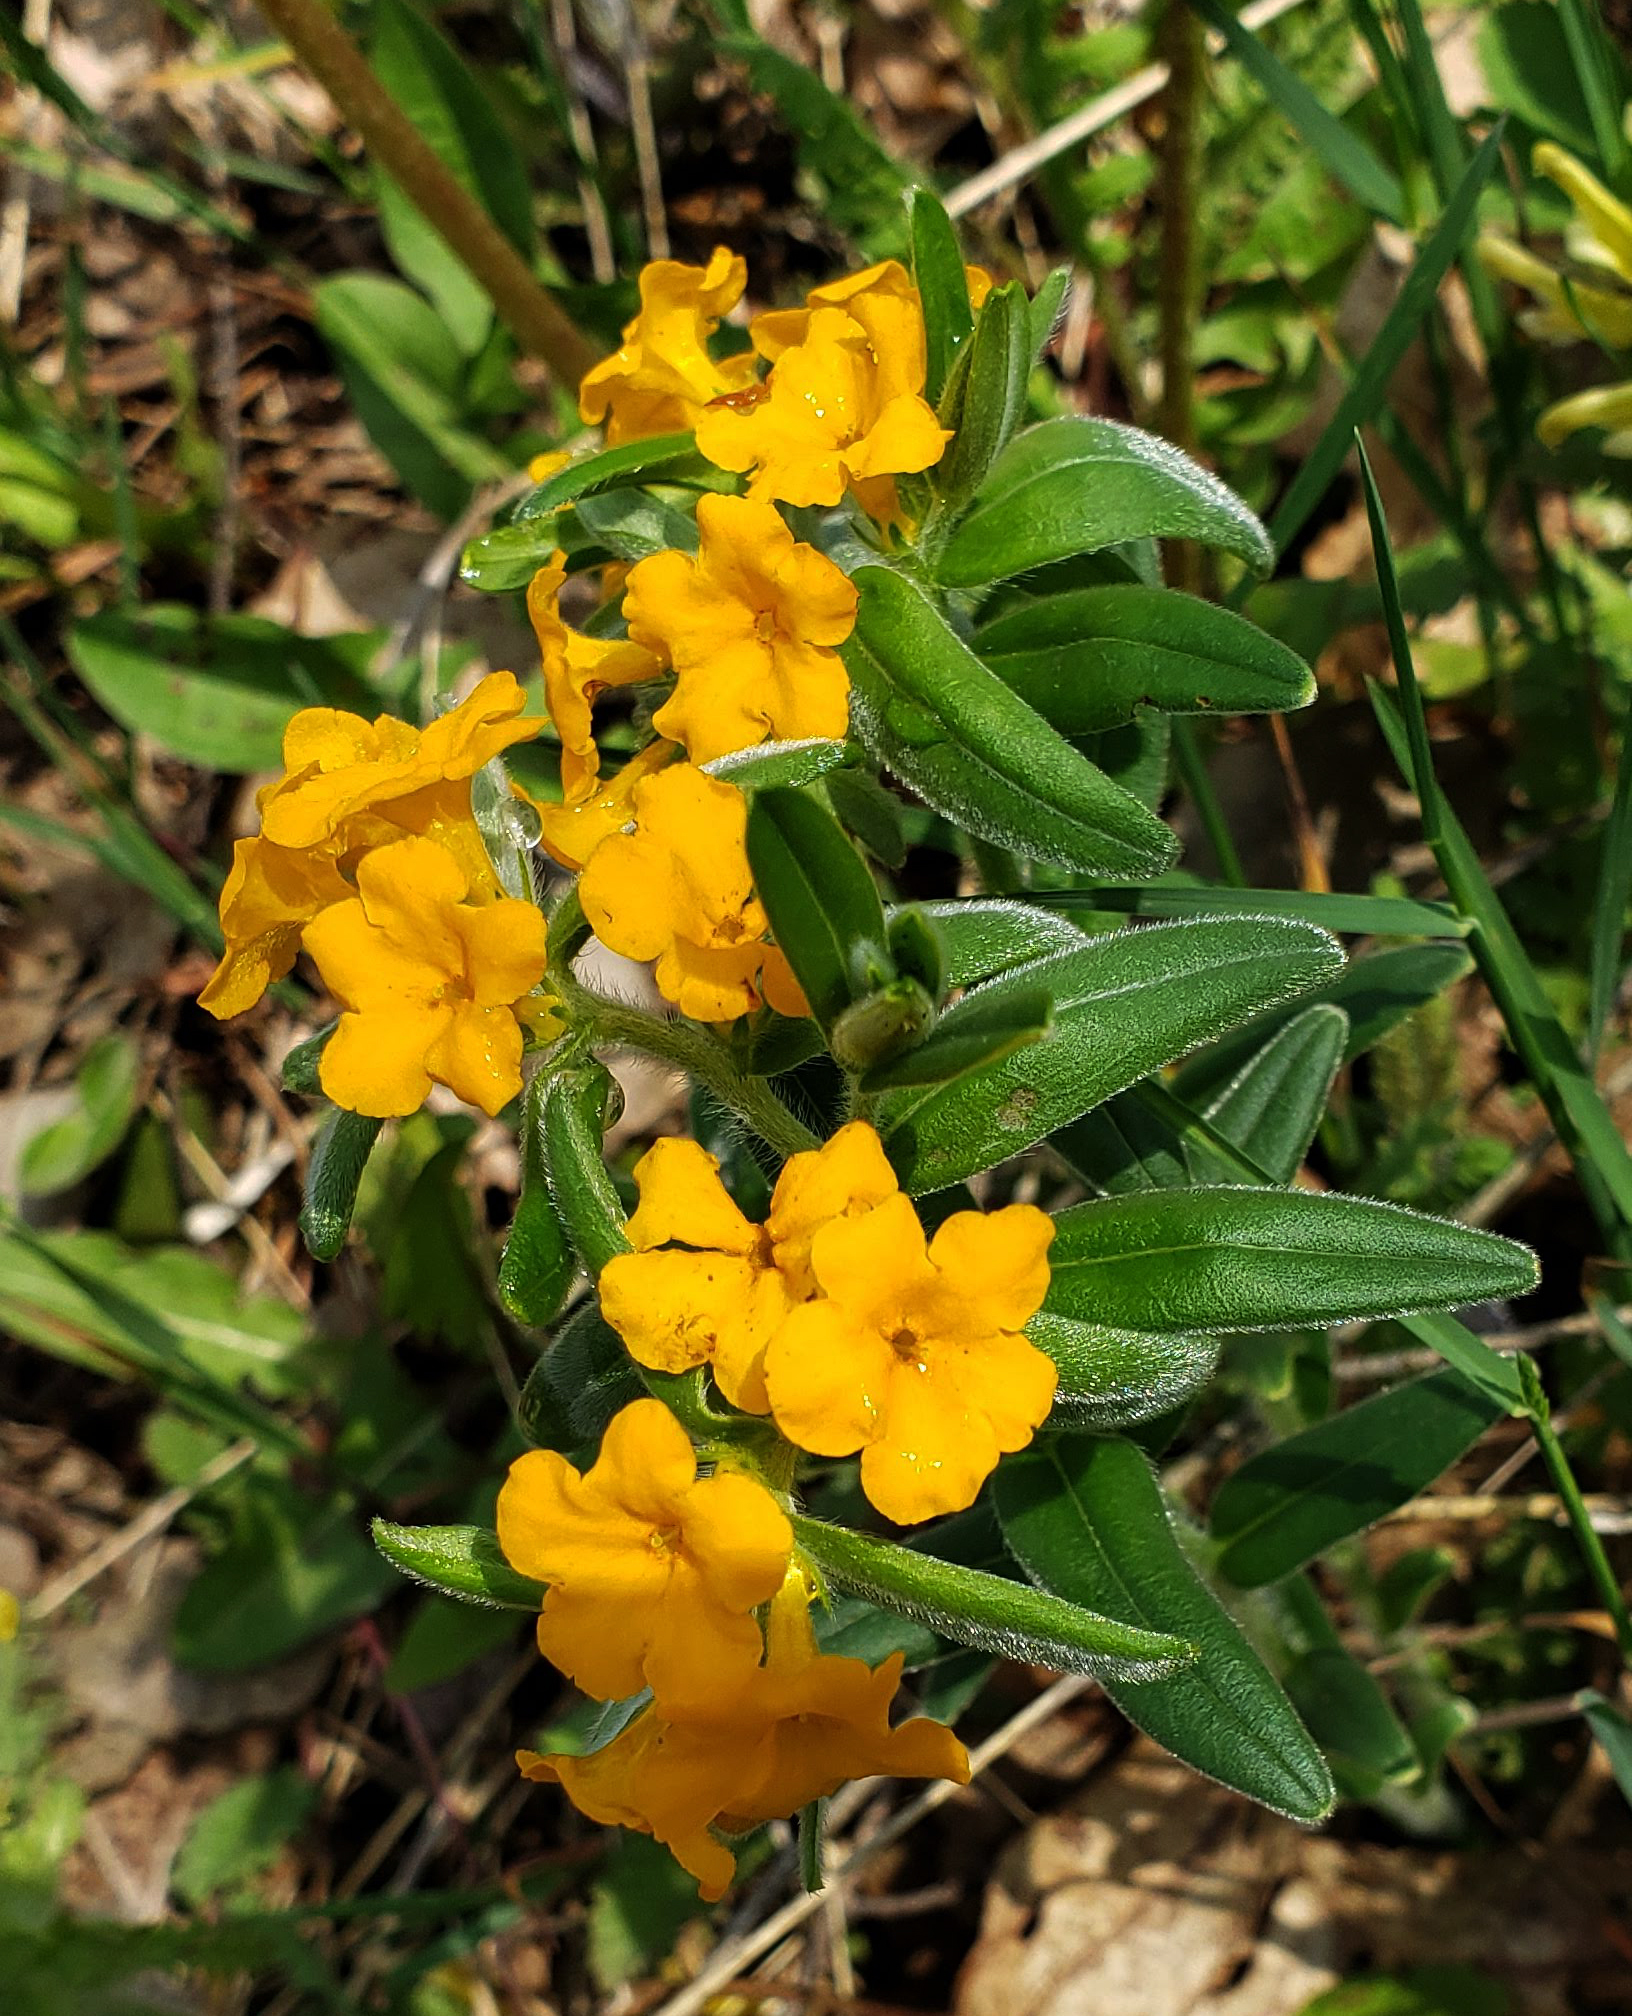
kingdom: Plantae
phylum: Tracheophyta
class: Magnoliopsida
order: Boraginales
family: Boraginaceae
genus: Lithospermum
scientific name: Lithospermum canescens
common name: Hoary puccoon
